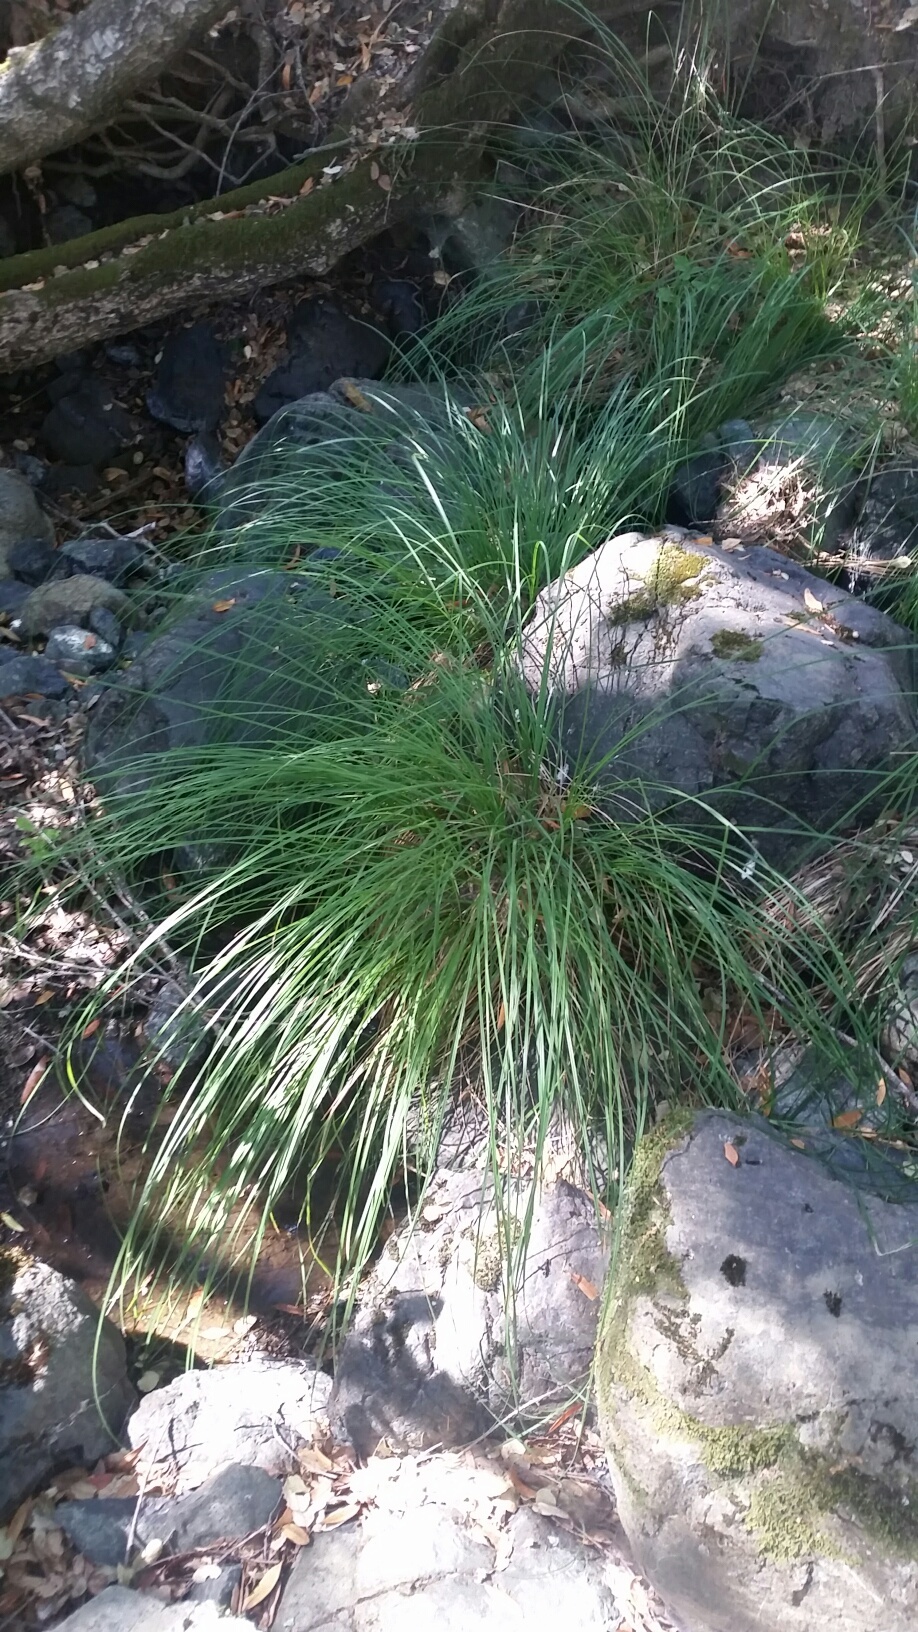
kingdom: Plantae
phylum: Tracheophyta
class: Liliopsida
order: Poales
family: Cyperaceae
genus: Carex
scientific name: Carex nudata
